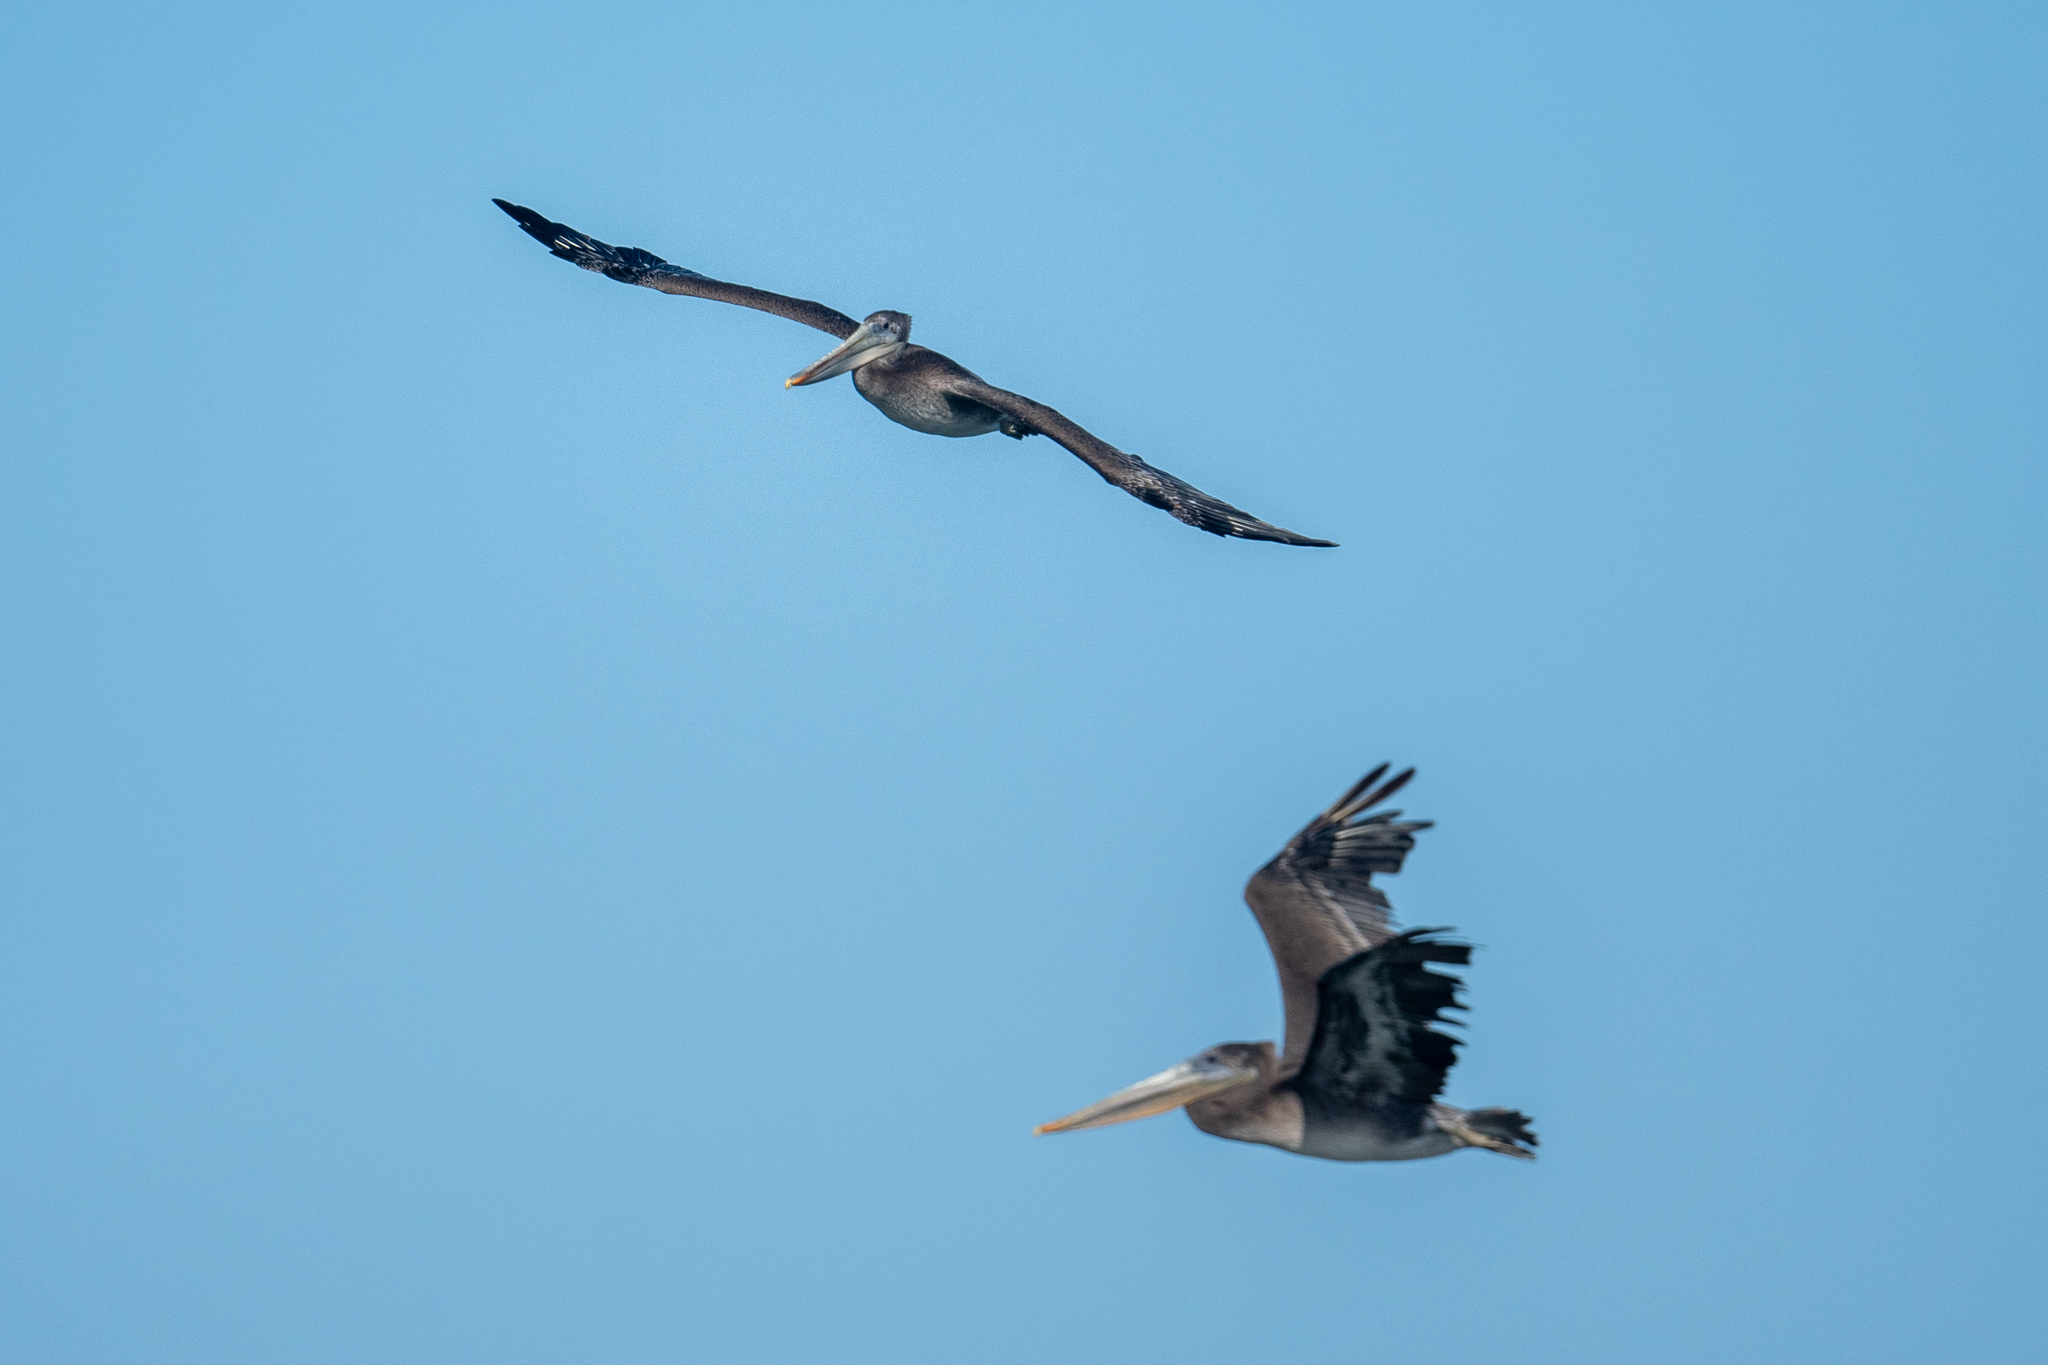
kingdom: Animalia
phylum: Chordata
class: Aves
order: Pelecaniformes
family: Pelecanidae
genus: Pelecanus
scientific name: Pelecanus occidentalis
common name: Brown pelican
